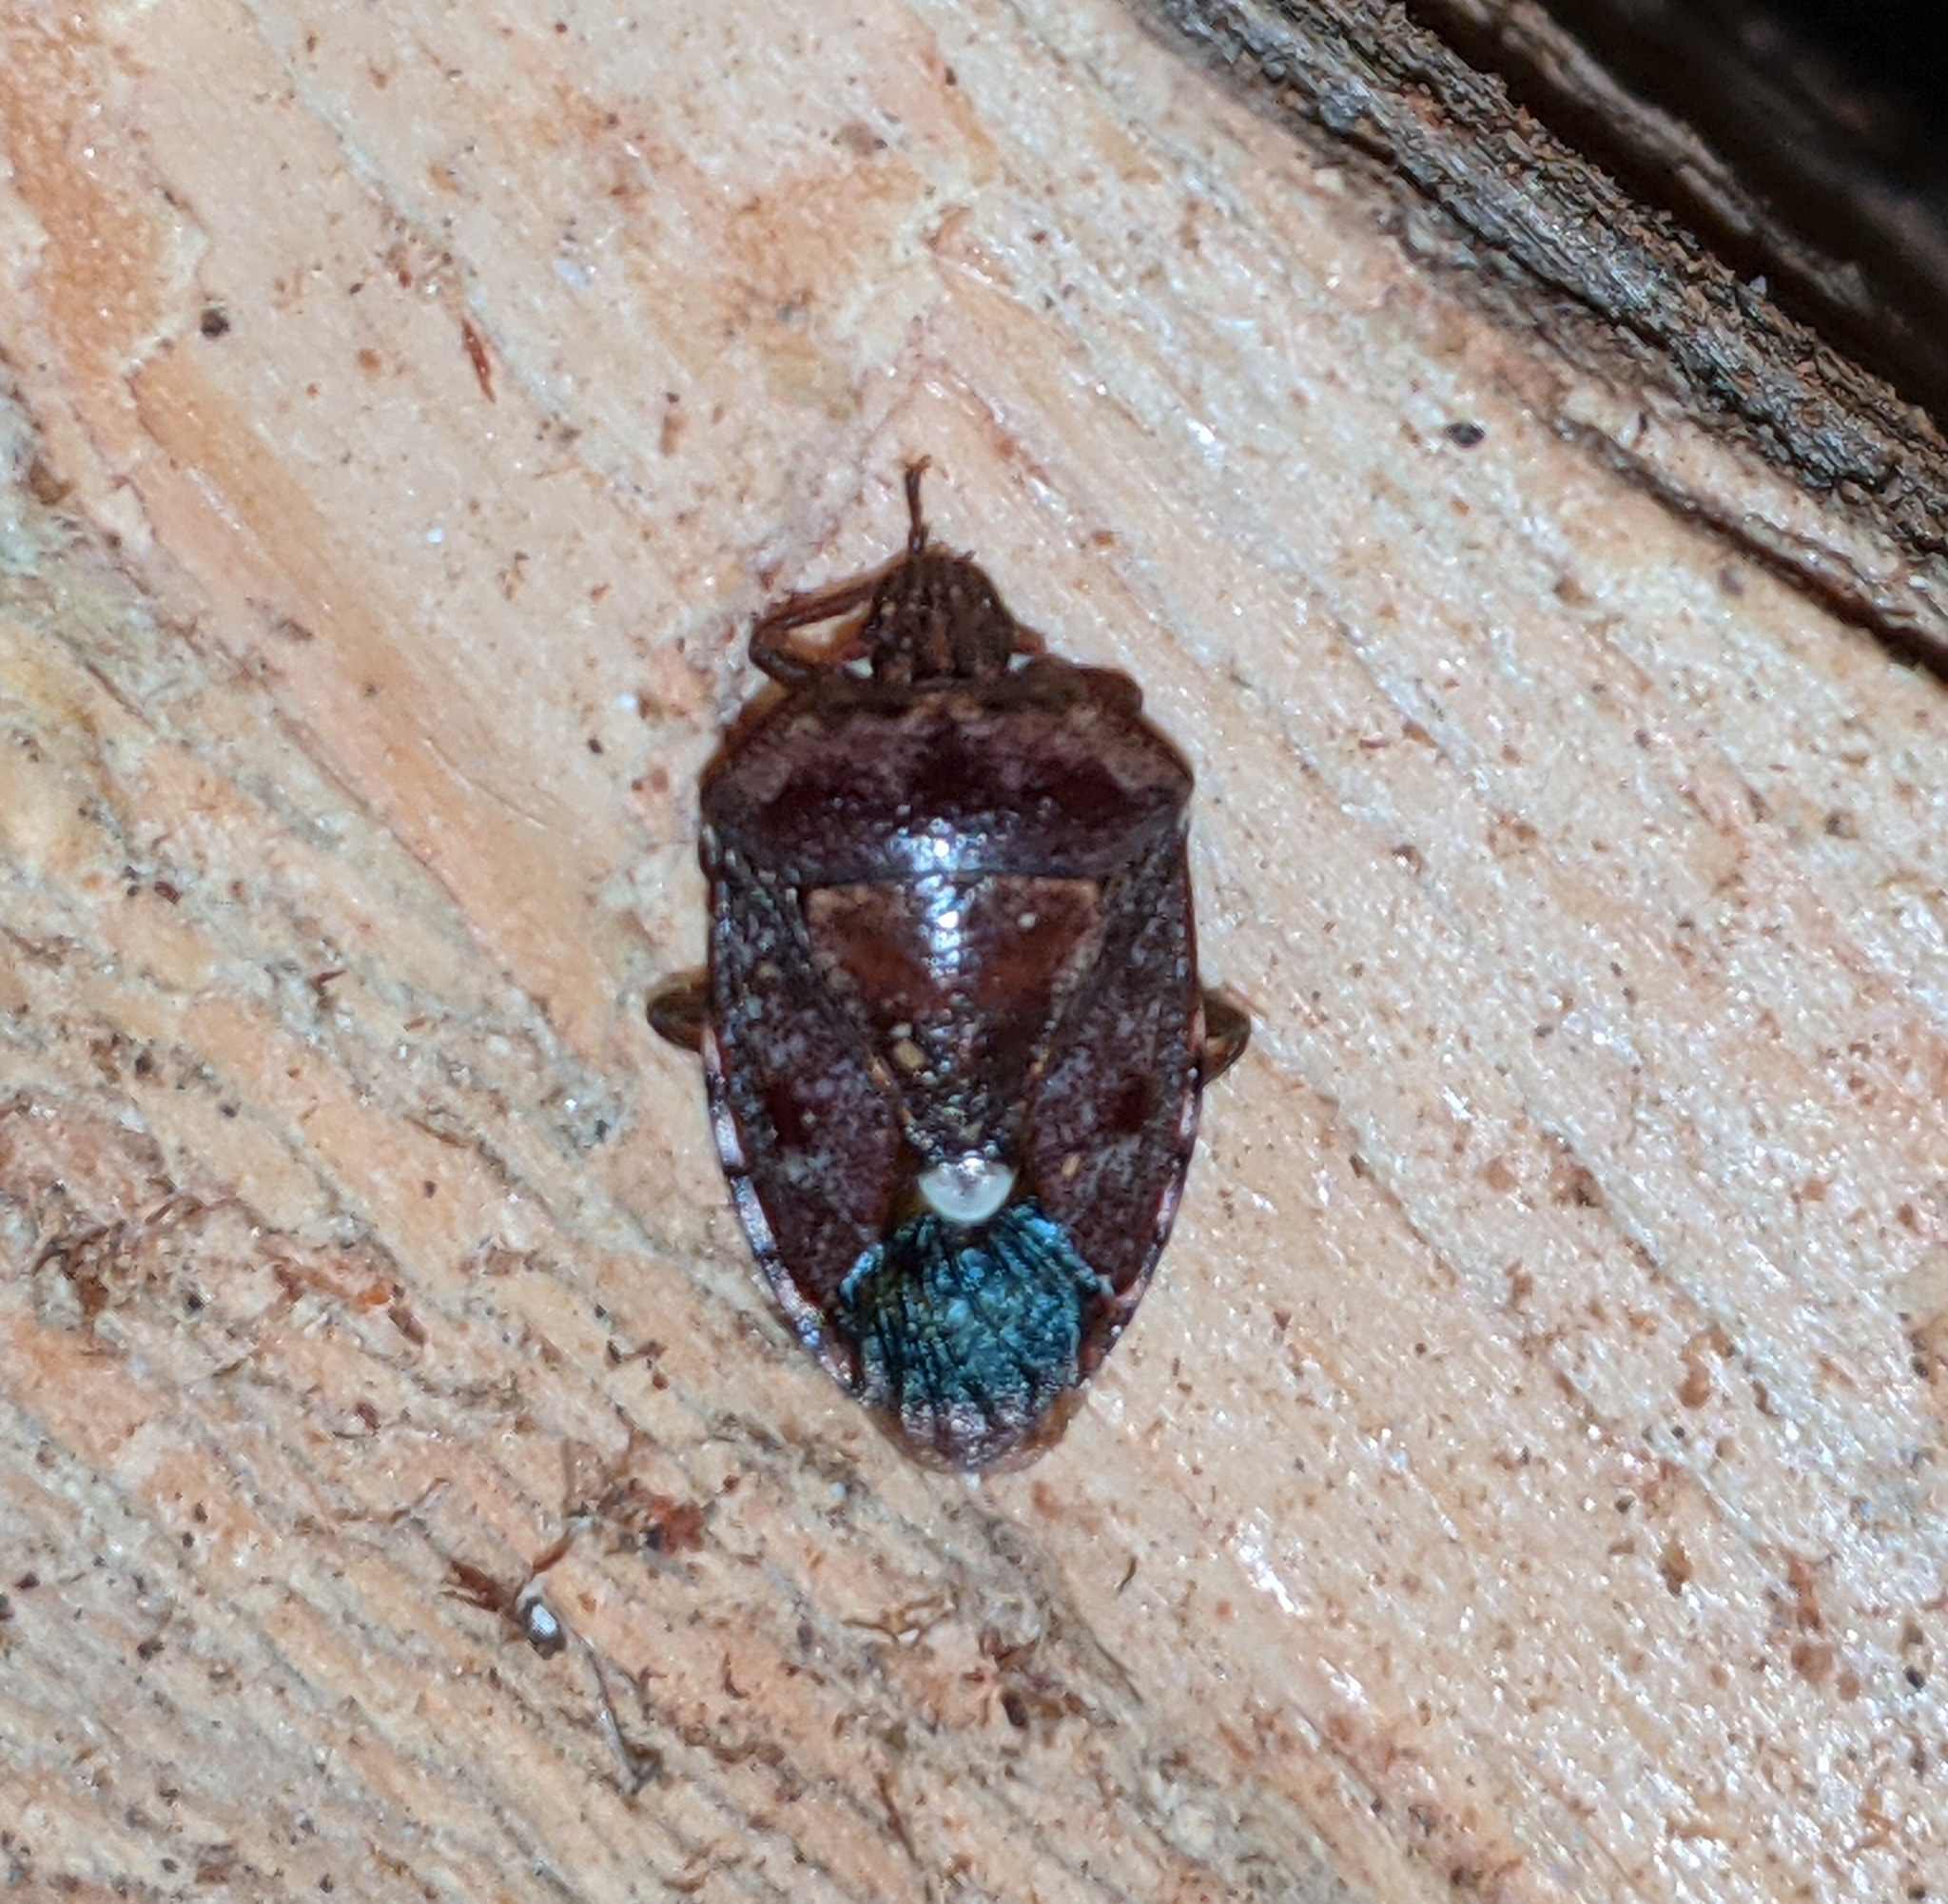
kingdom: Animalia
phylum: Arthropoda
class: Insecta
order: Hemiptera
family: Pentatomidae
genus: Banasa
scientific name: Banasa sordida
